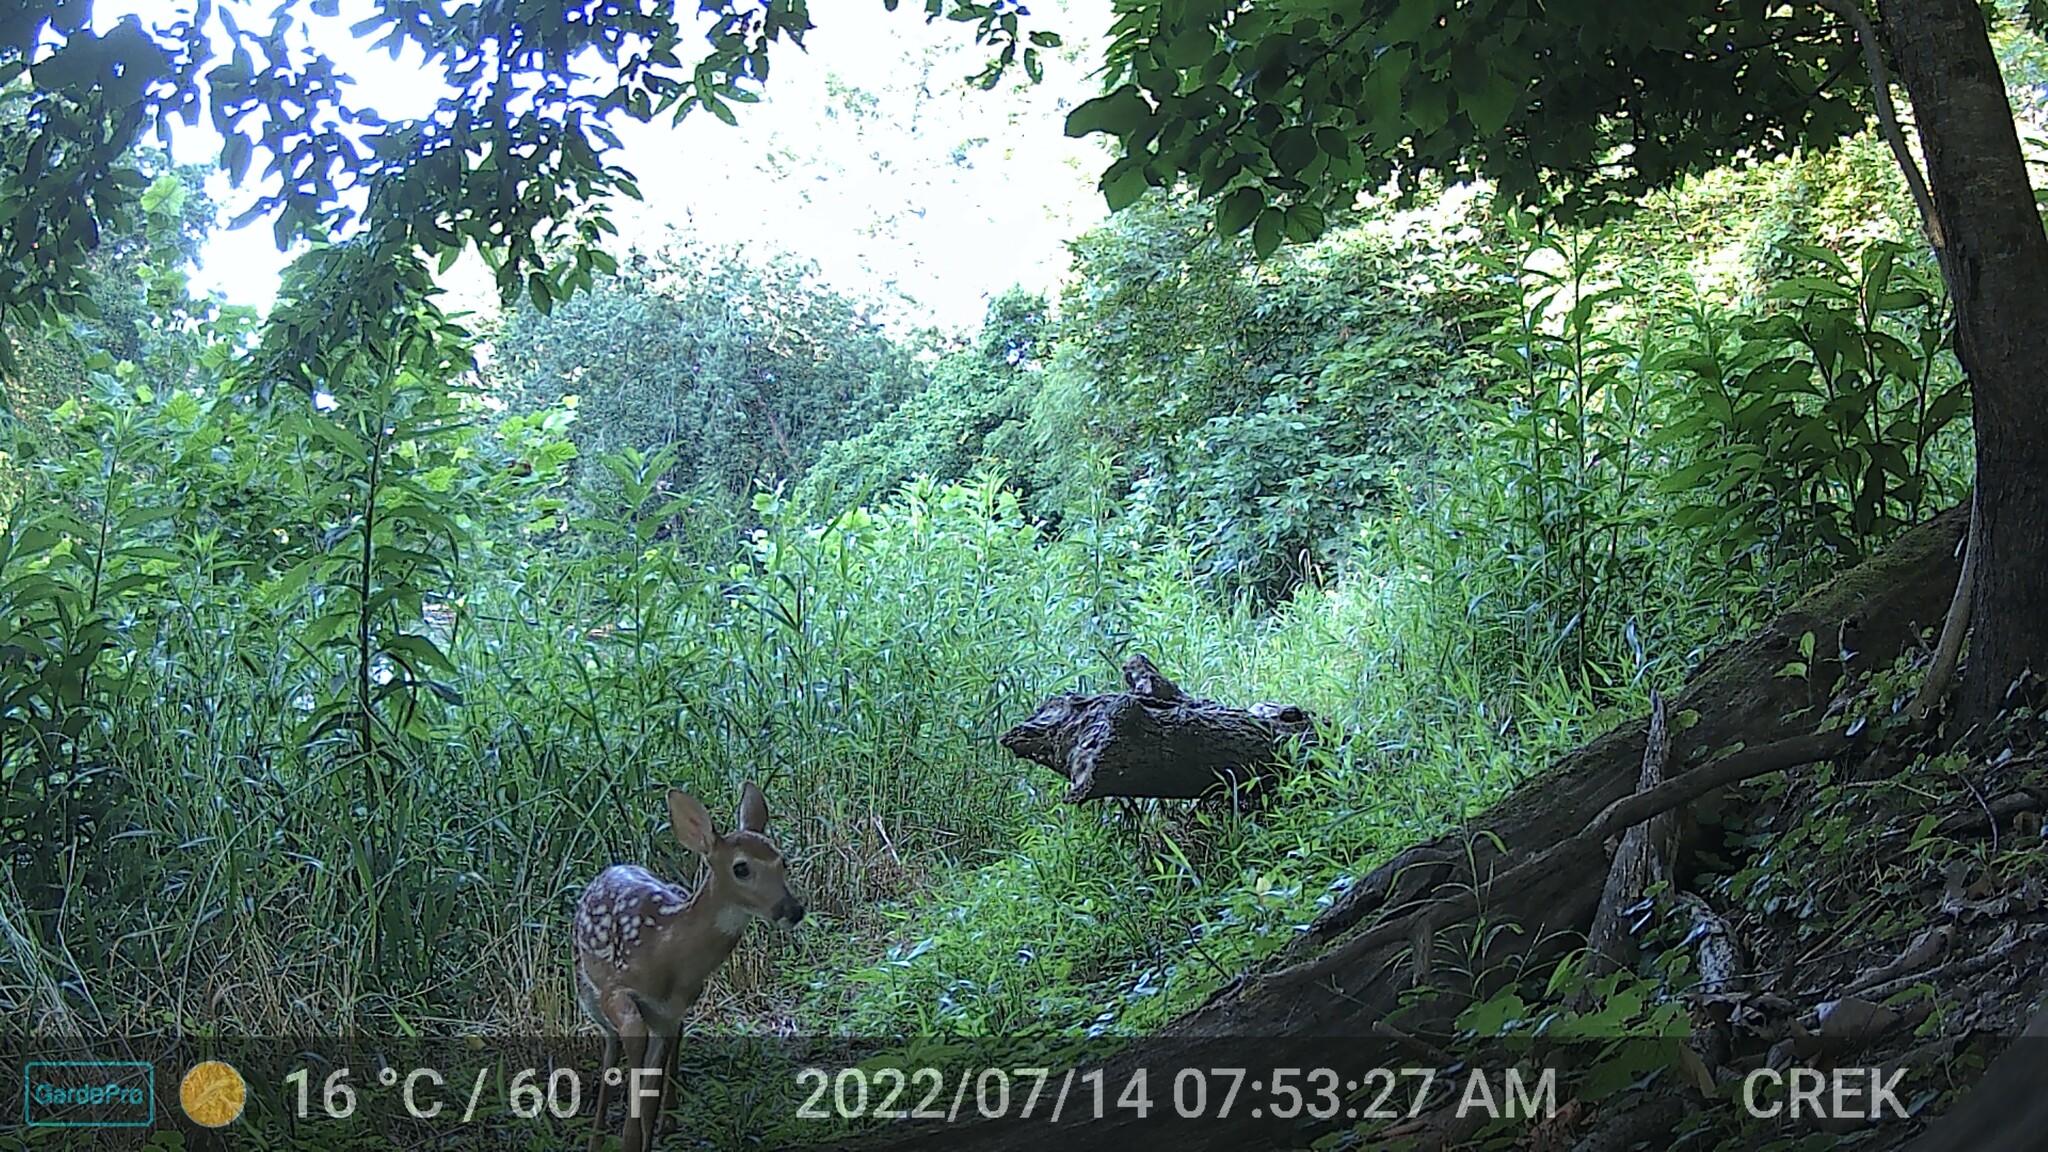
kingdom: Animalia
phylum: Chordata
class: Mammalia
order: Artiodactyla
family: Cervidae
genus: Odocoileus
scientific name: Odocoileus virginianus
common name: White-tailed deer
